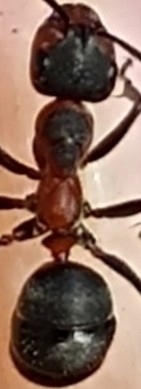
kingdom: Animalia
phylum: Arthropoda
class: Insecta
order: Hymenoptera
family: Formicidae
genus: Formica
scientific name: Formica pratensis
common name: European red wood ant
